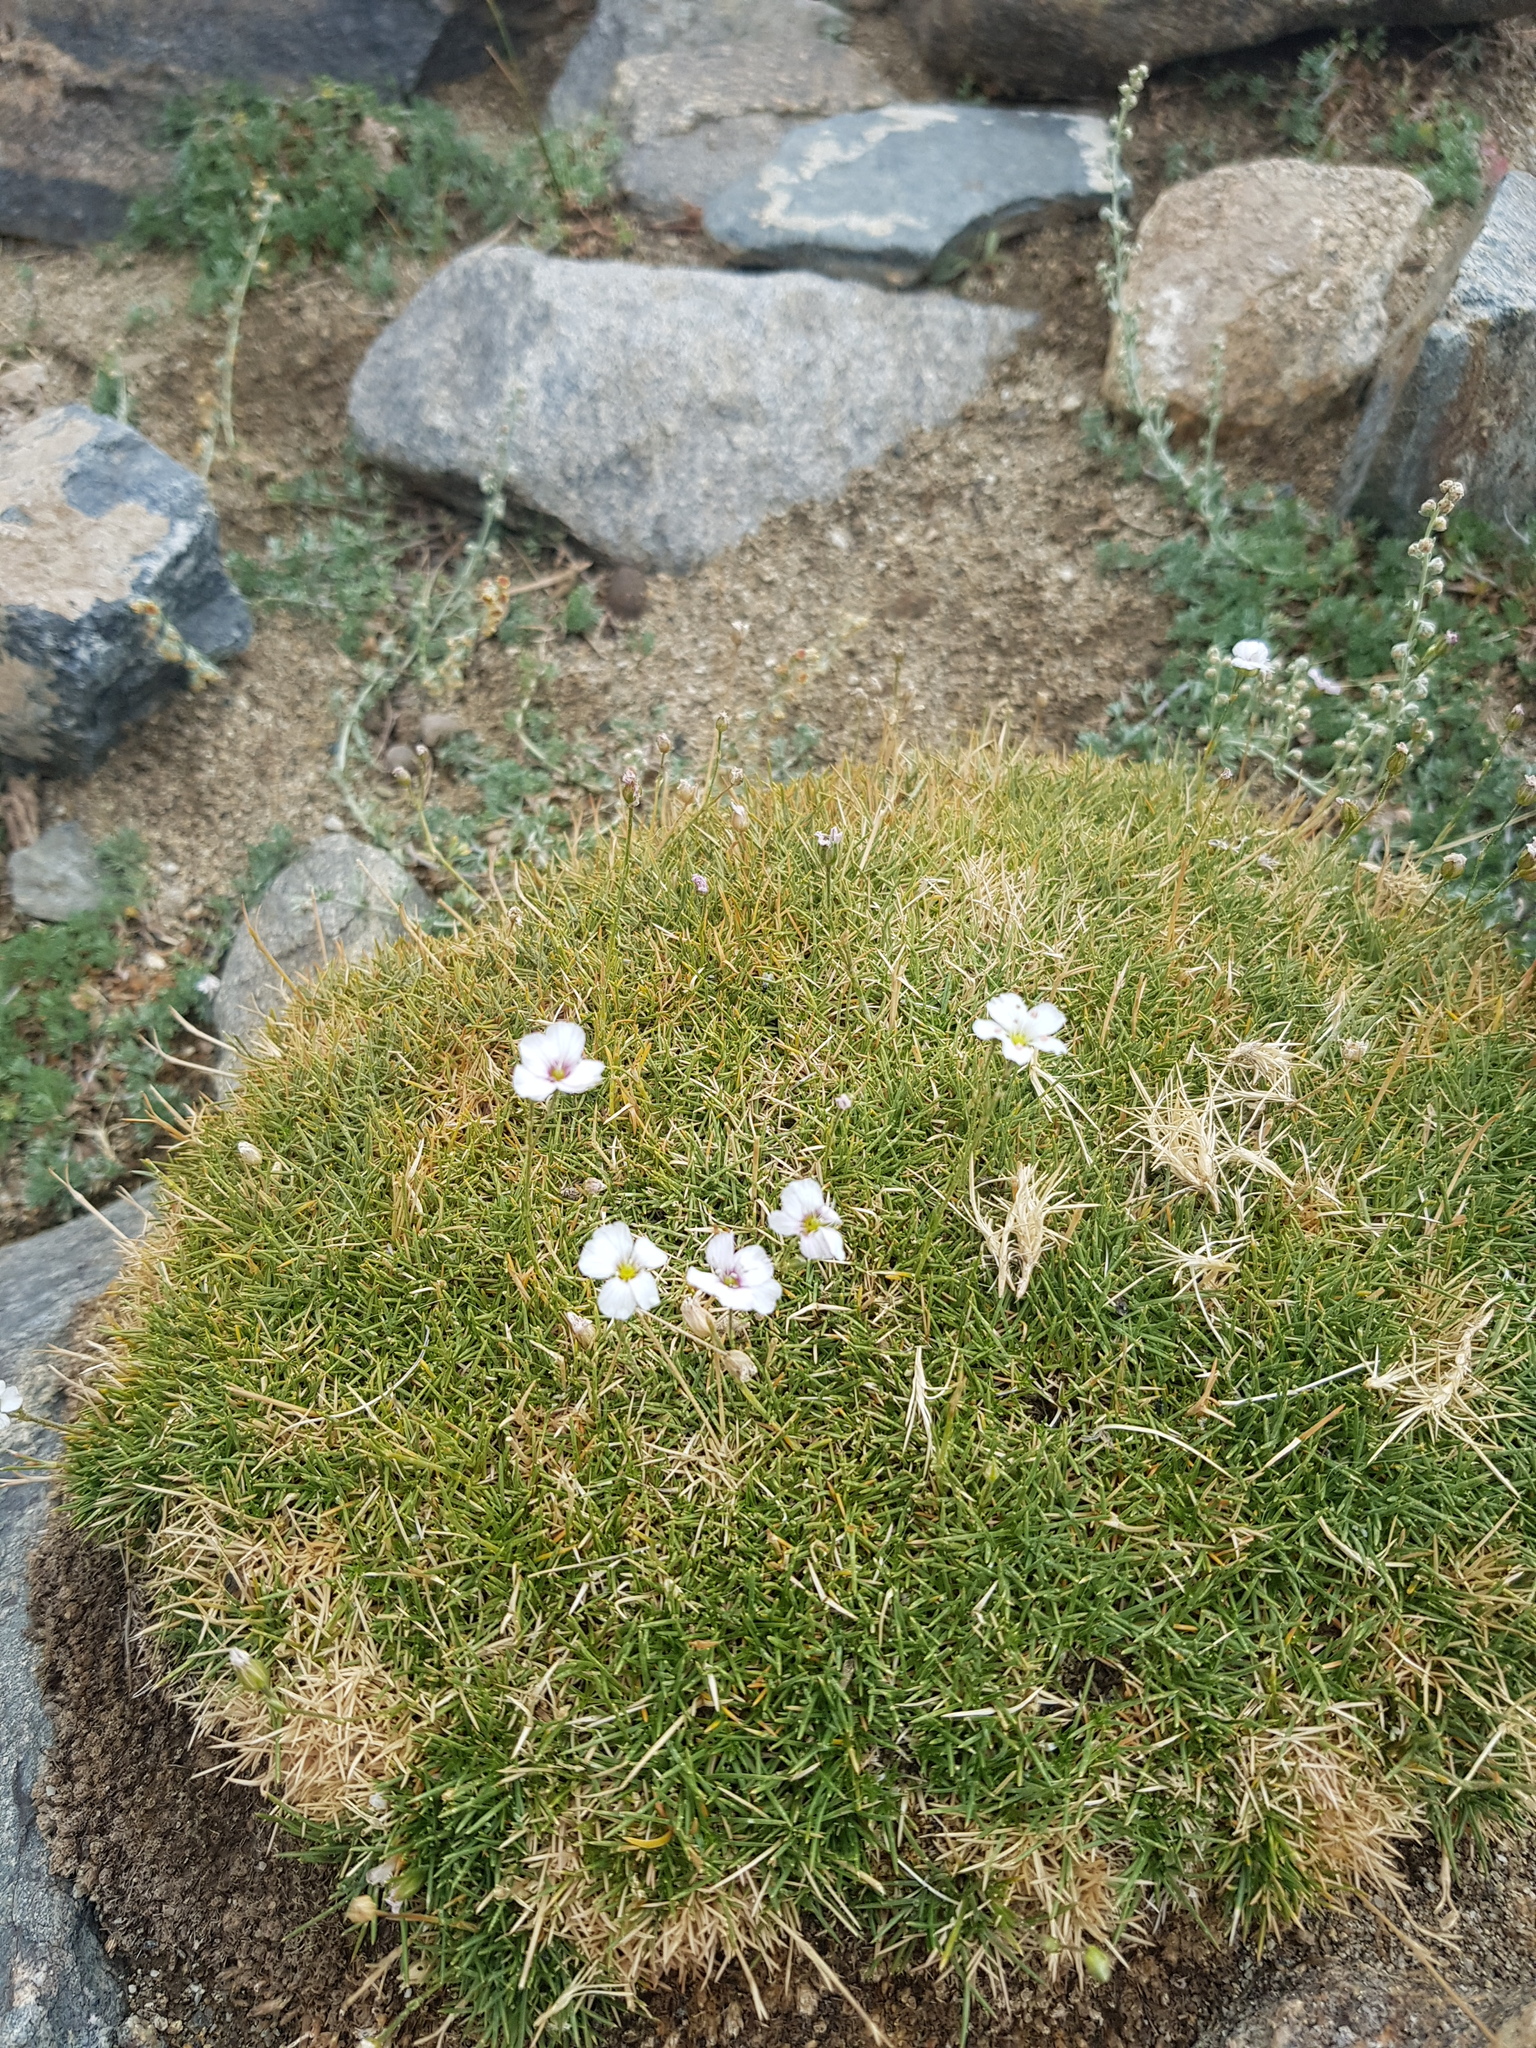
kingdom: Plantae
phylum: Tracheophyta
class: Magnoliopsida
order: Caryophyllales
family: Caryophyllaceae
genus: Eremogone
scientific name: Eremogone meyeri
